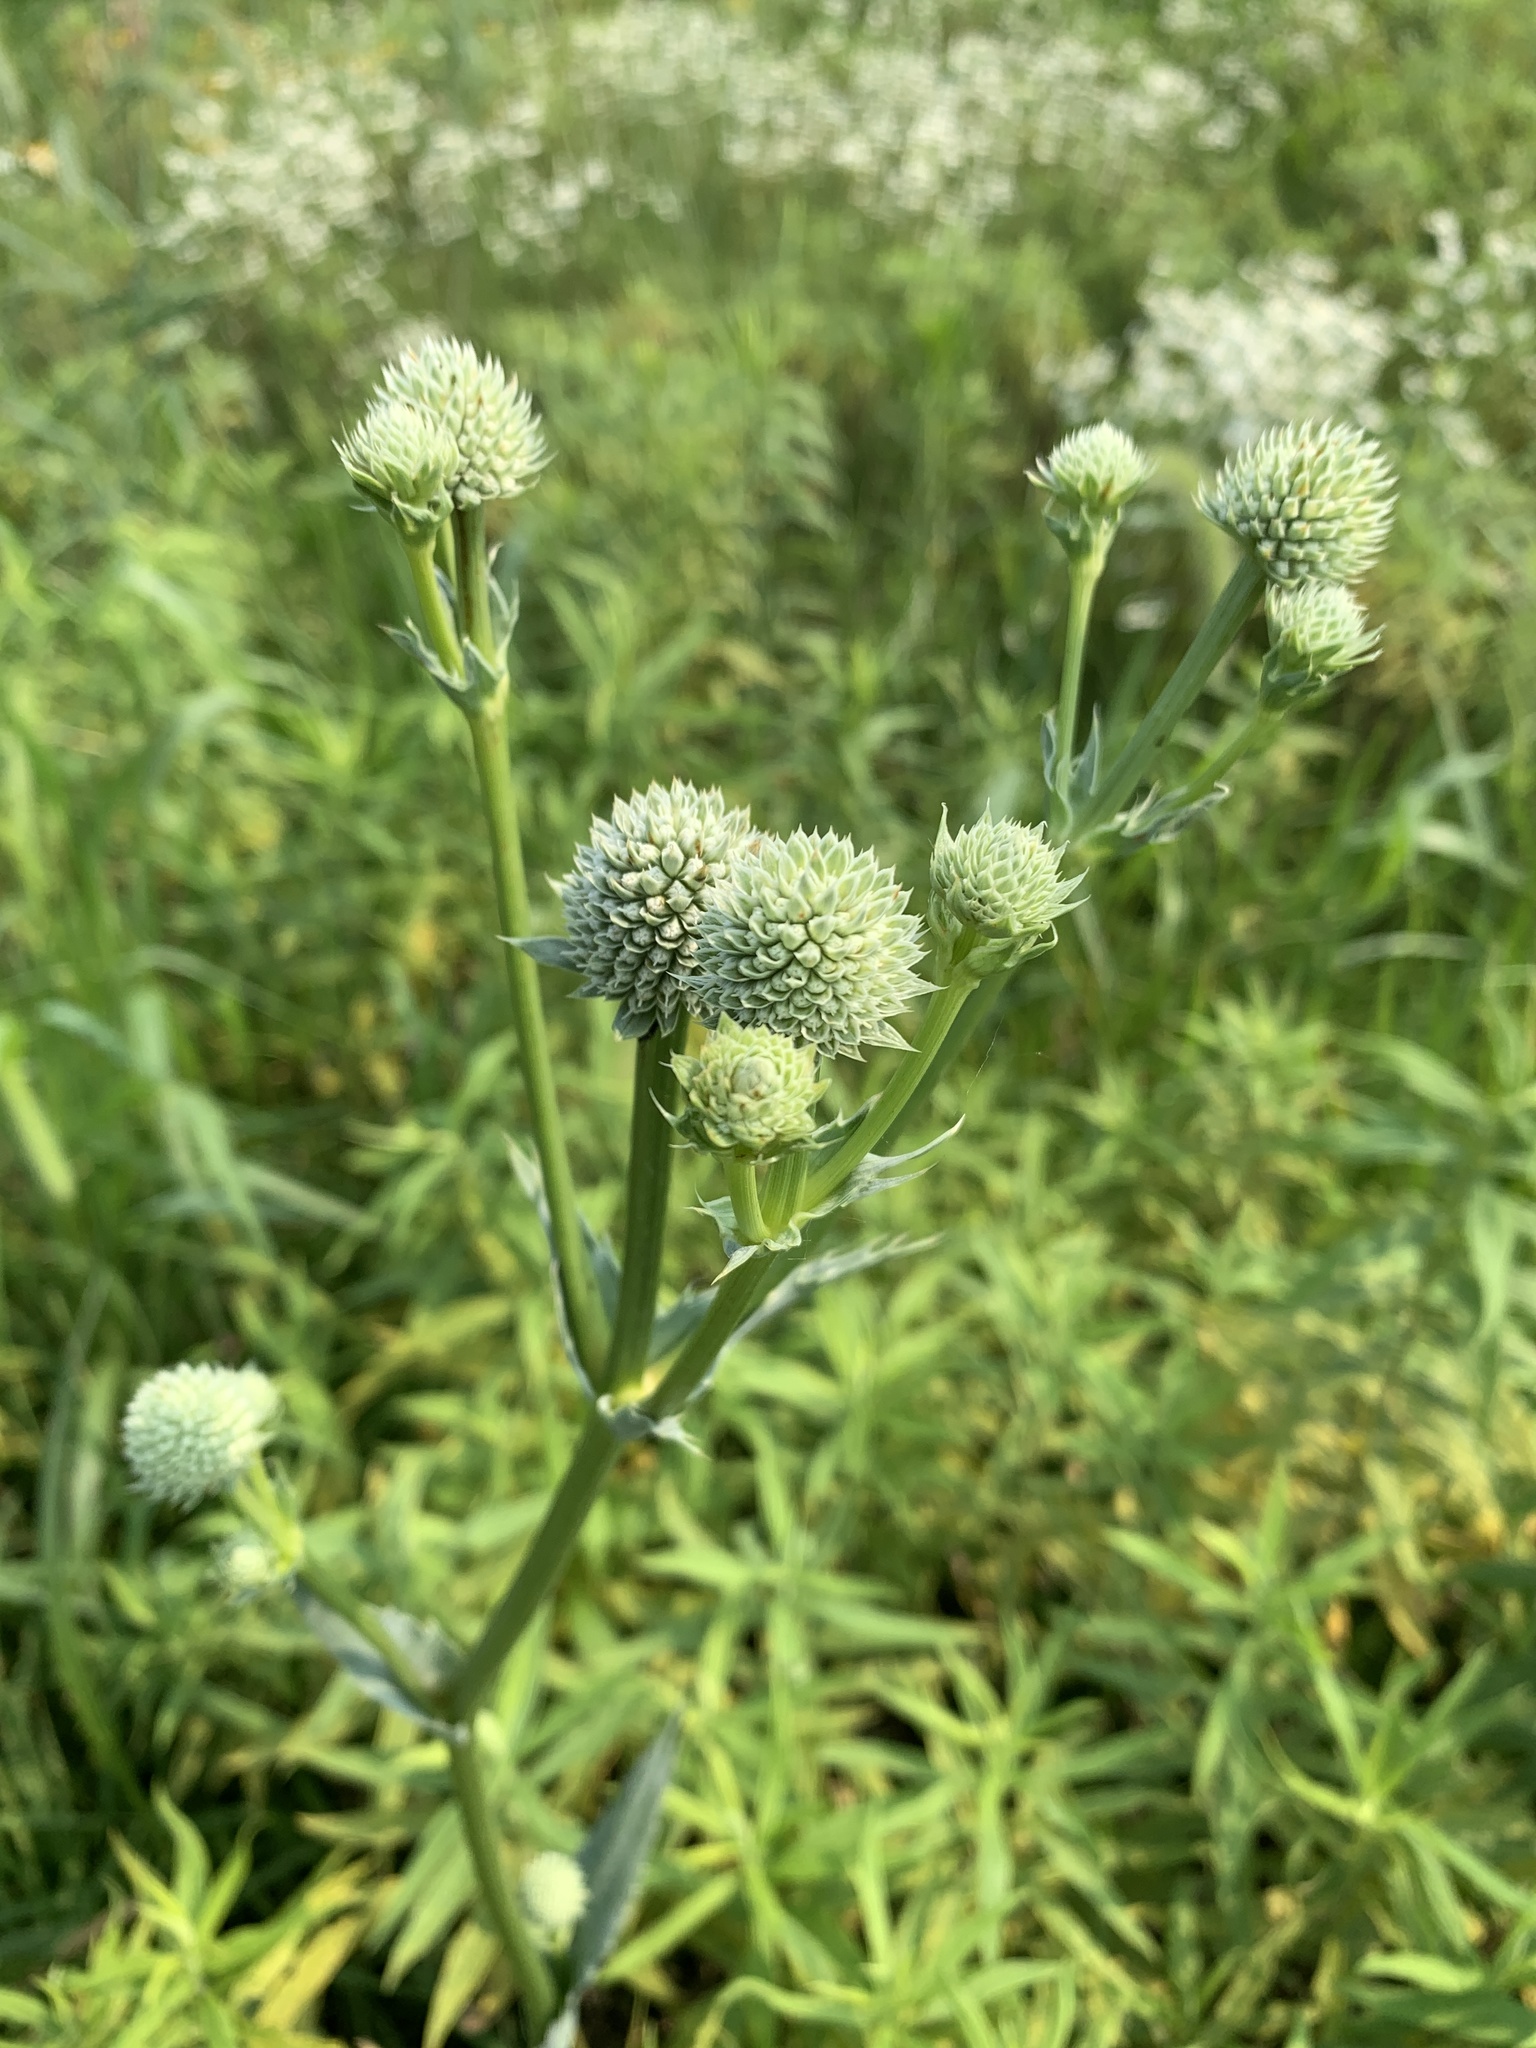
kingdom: Plantae
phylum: Tracheophyta
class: Magnoliopsida
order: Apiales
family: Apiaceae
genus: Eryngium
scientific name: Eryngium yuccifolium
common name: Button eryngo
